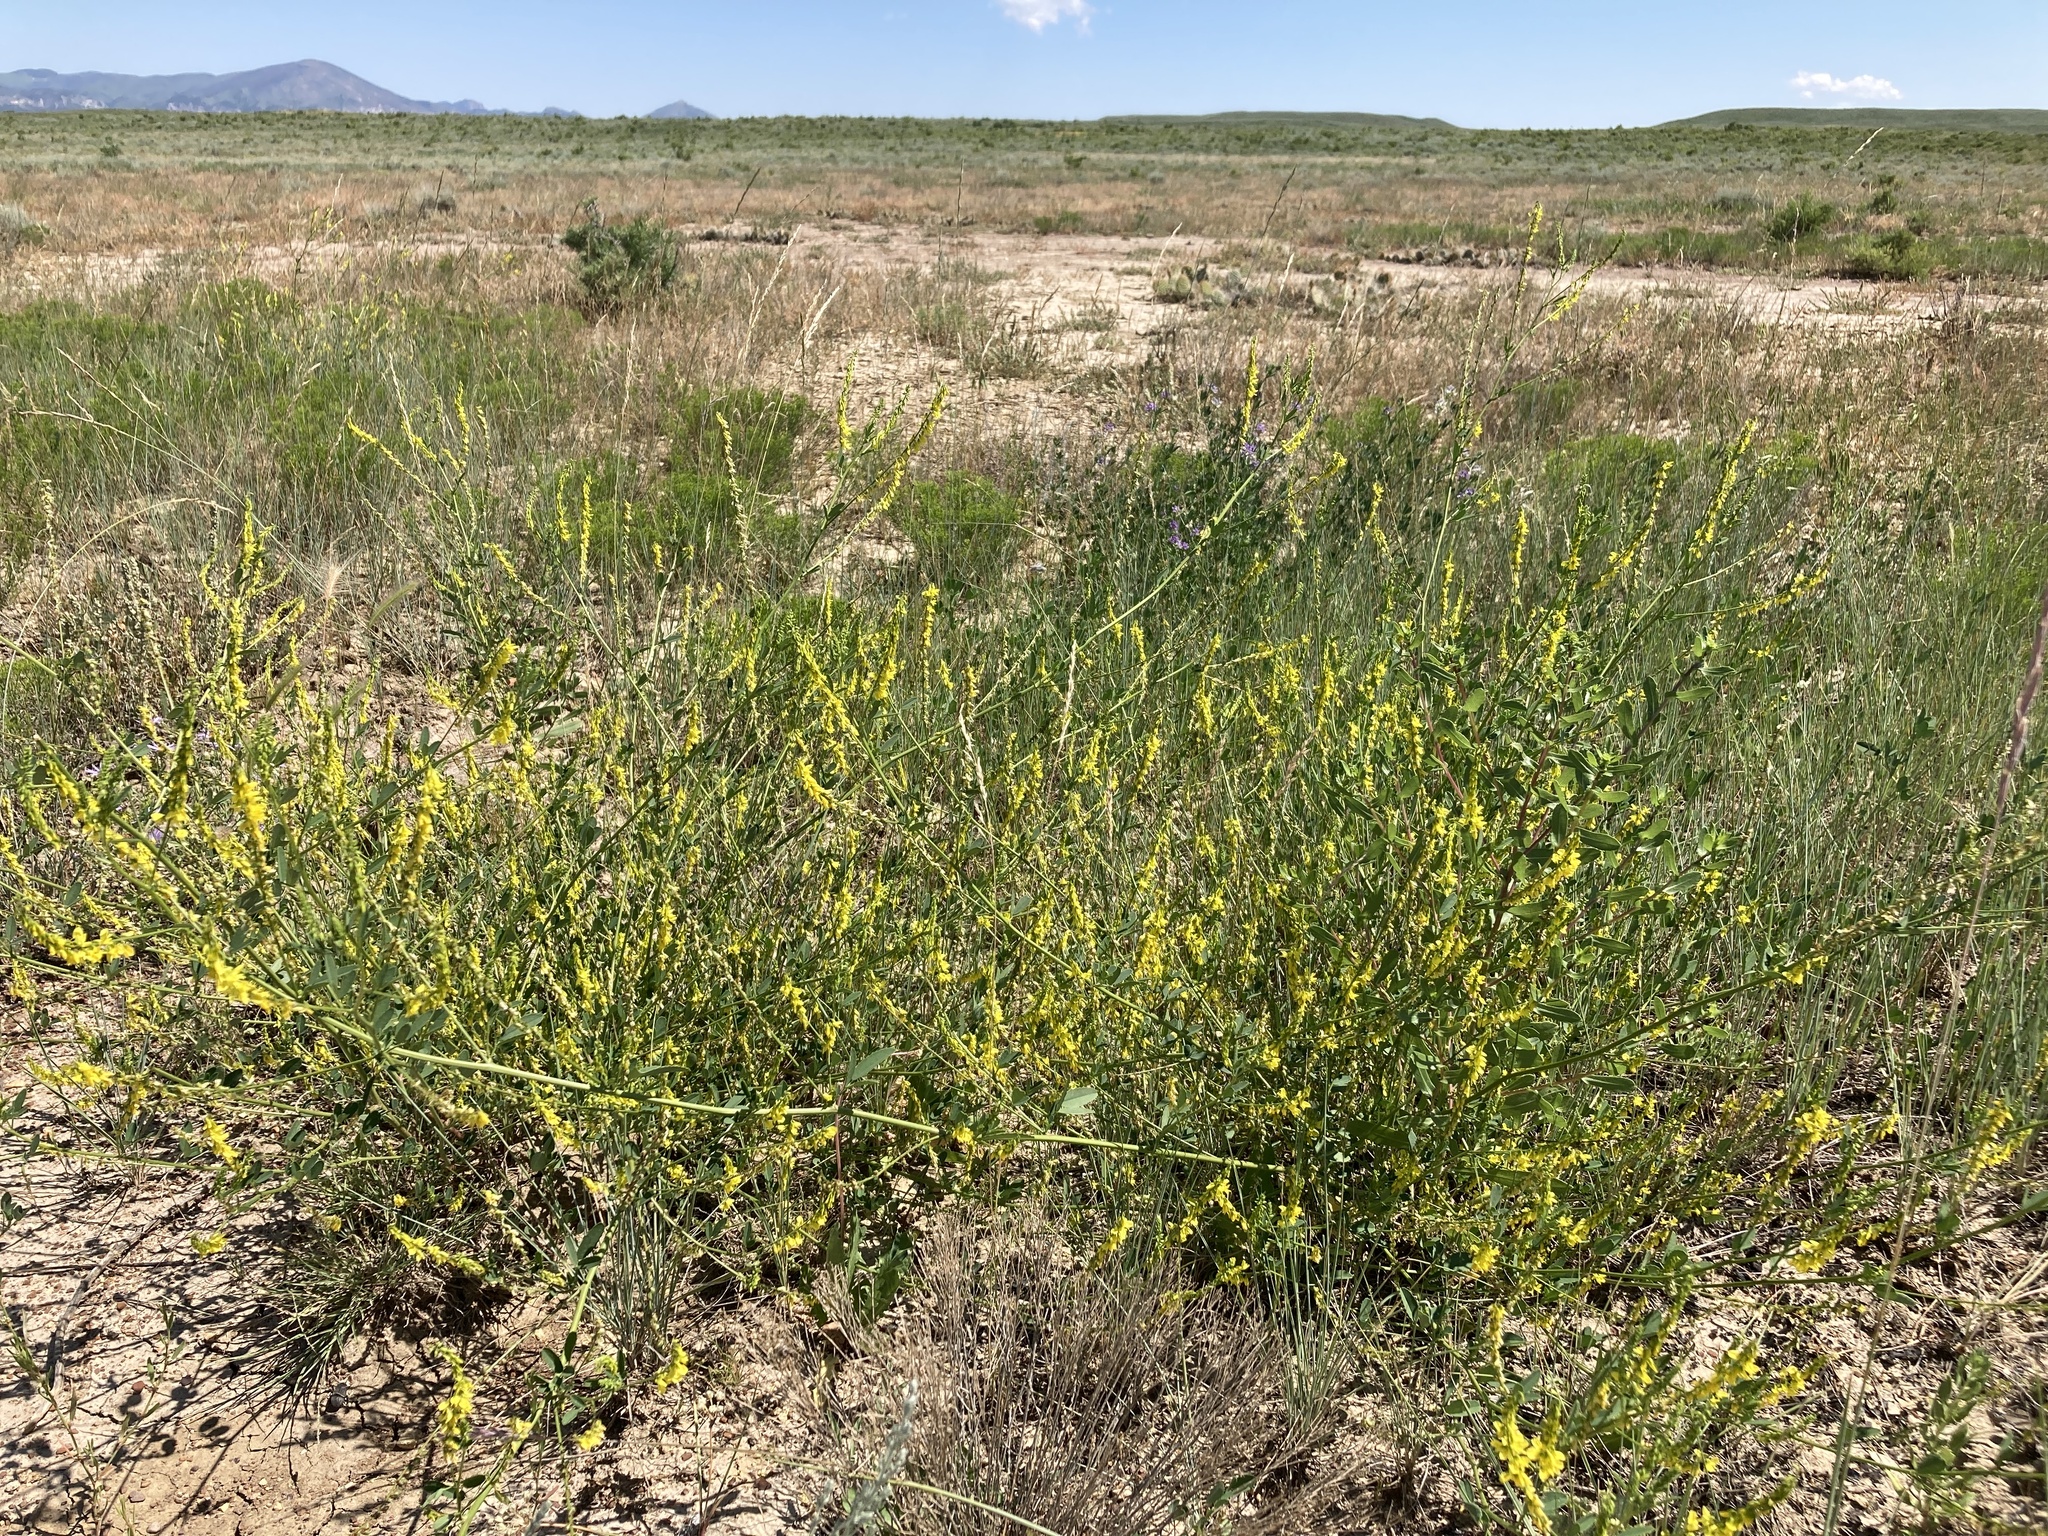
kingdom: Plantae
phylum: Tracheophyta
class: Magnoliopsida
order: Fabales
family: Fabaceae
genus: Melilotus
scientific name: Melilotus officinalis
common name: Sweetclover
